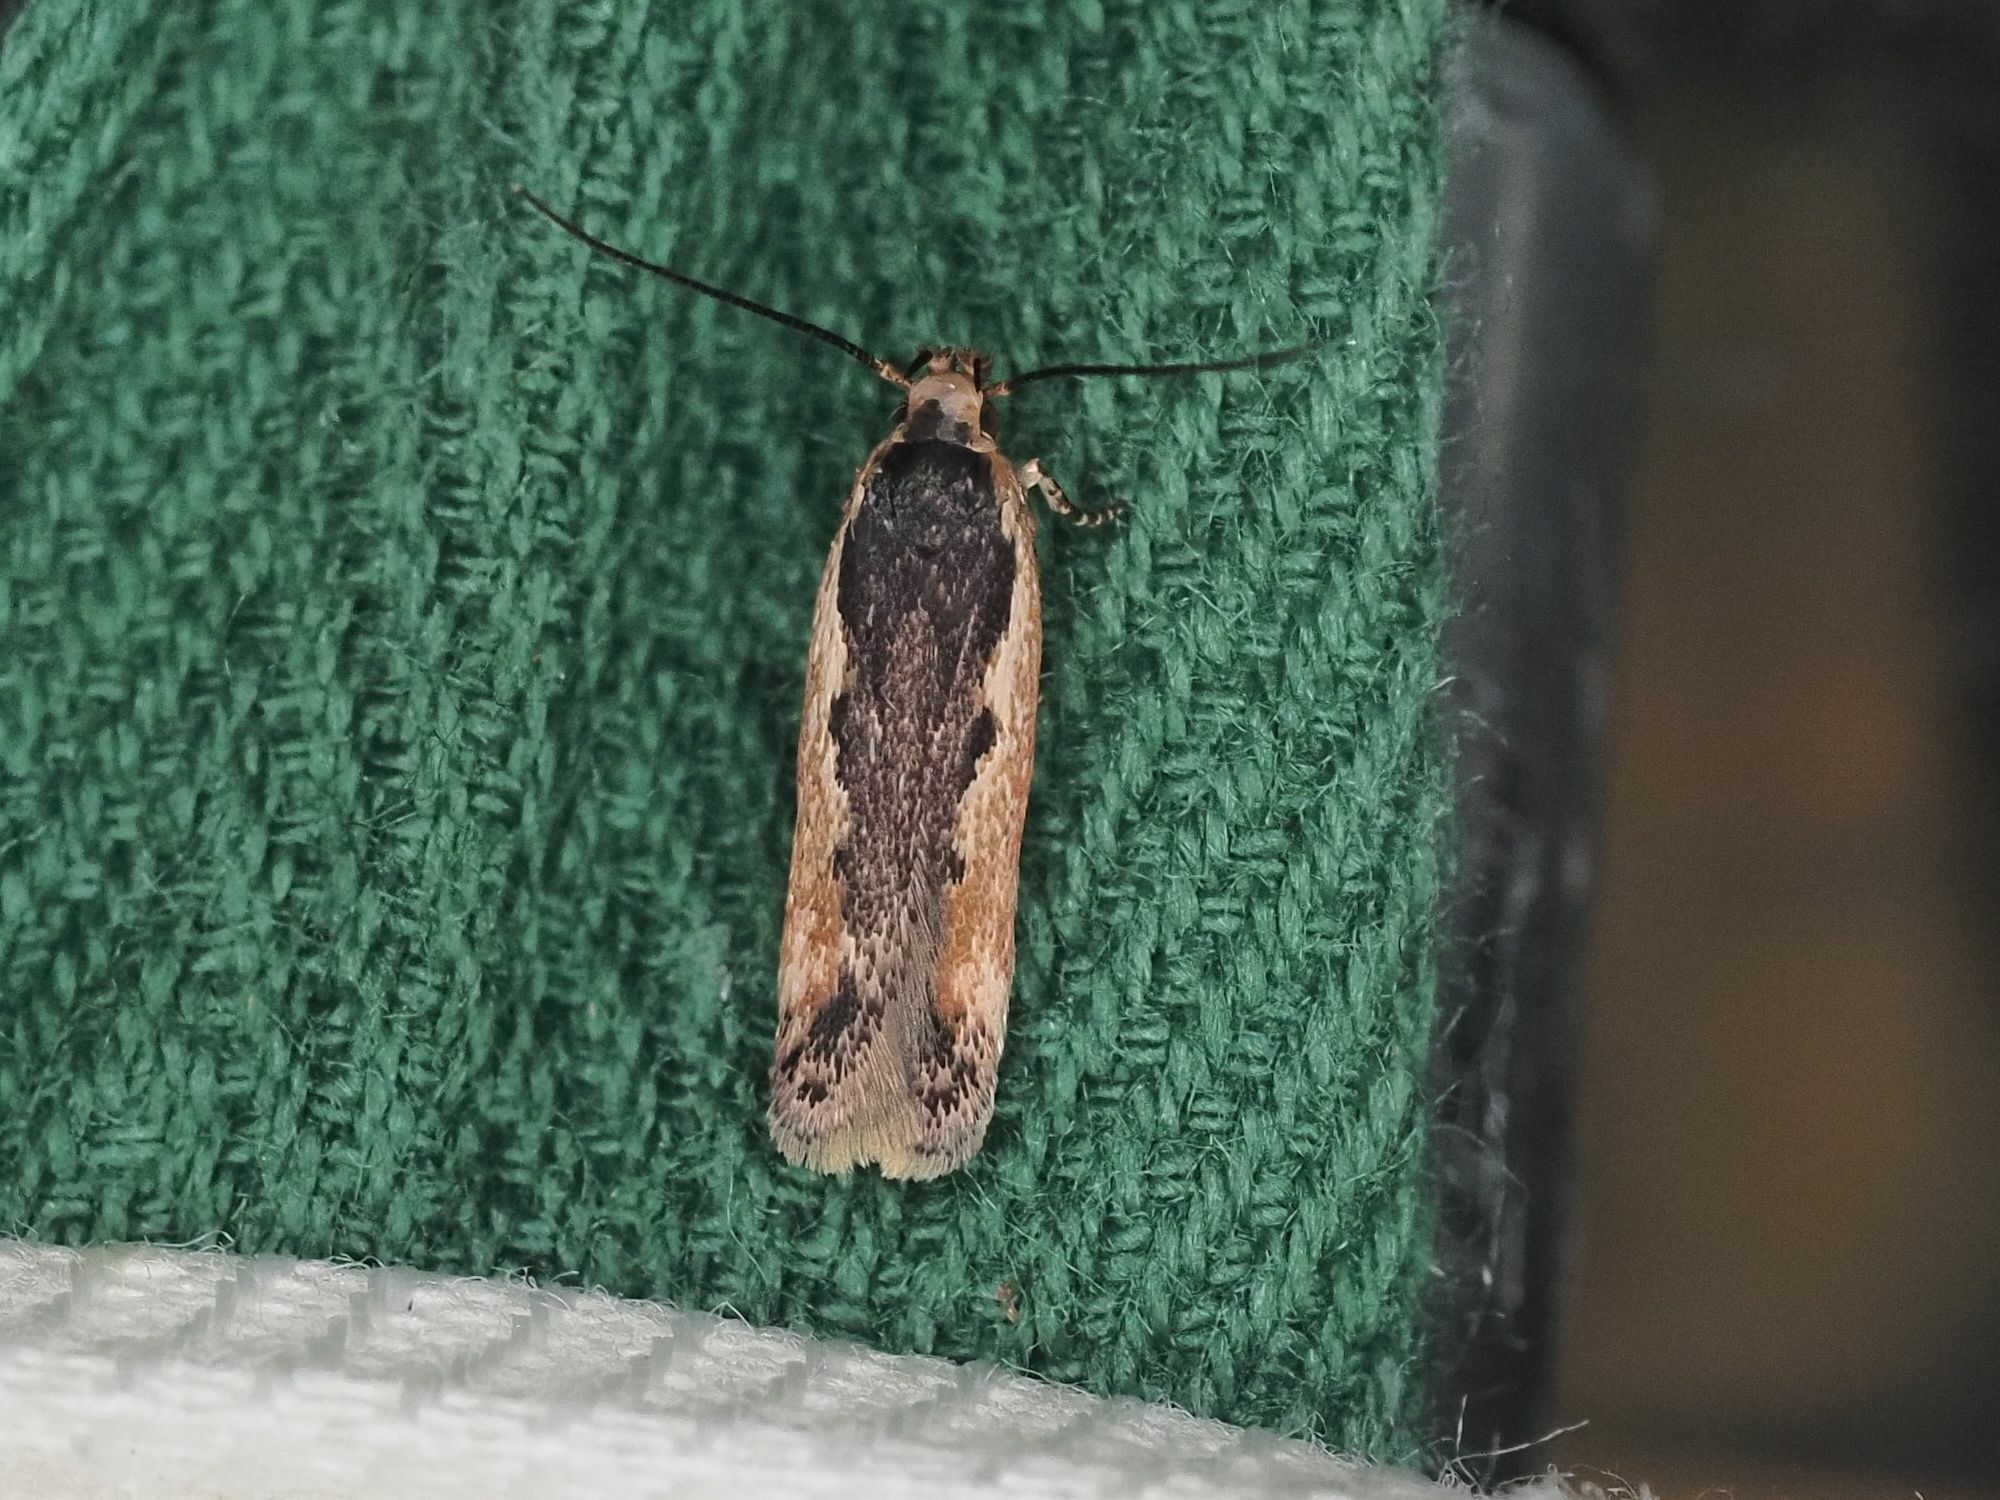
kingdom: Animalia
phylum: Arthropoda
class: Insecta
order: Lepidoptera
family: Gelechiidae
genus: Cosmardia
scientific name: Cosmardia moritzella
